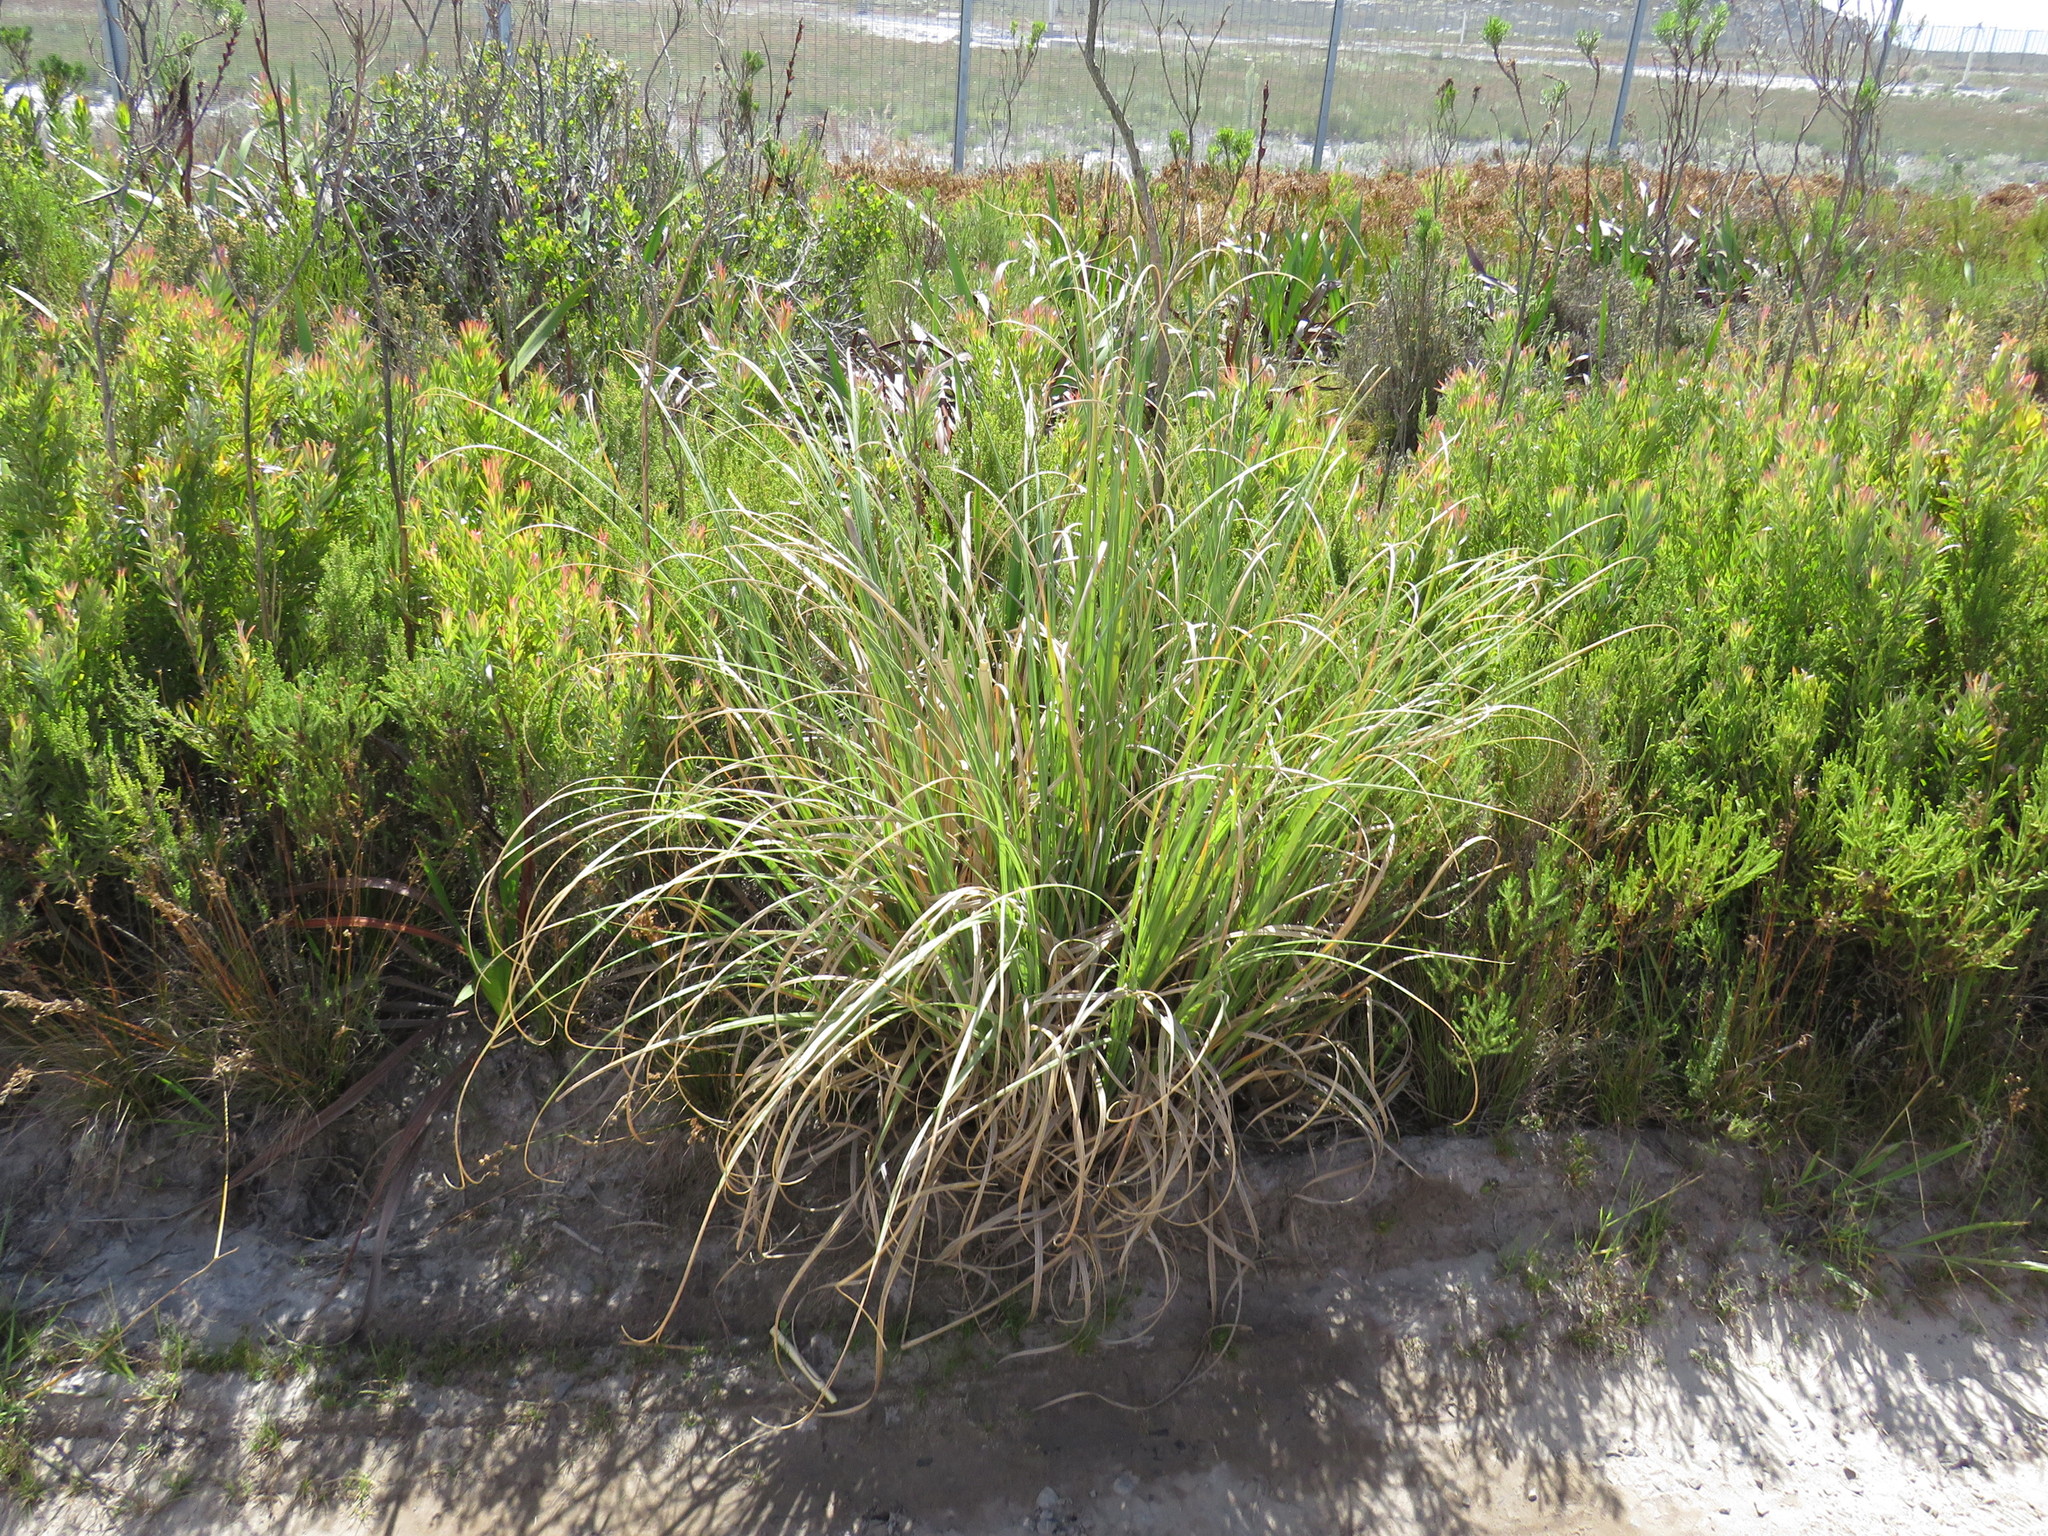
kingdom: Plantae
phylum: Tracheophyta
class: Liliopsida
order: Poales
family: Poaceae
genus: Cortaderia
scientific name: Cortaderia selloana
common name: Uruguayan pampas grass
